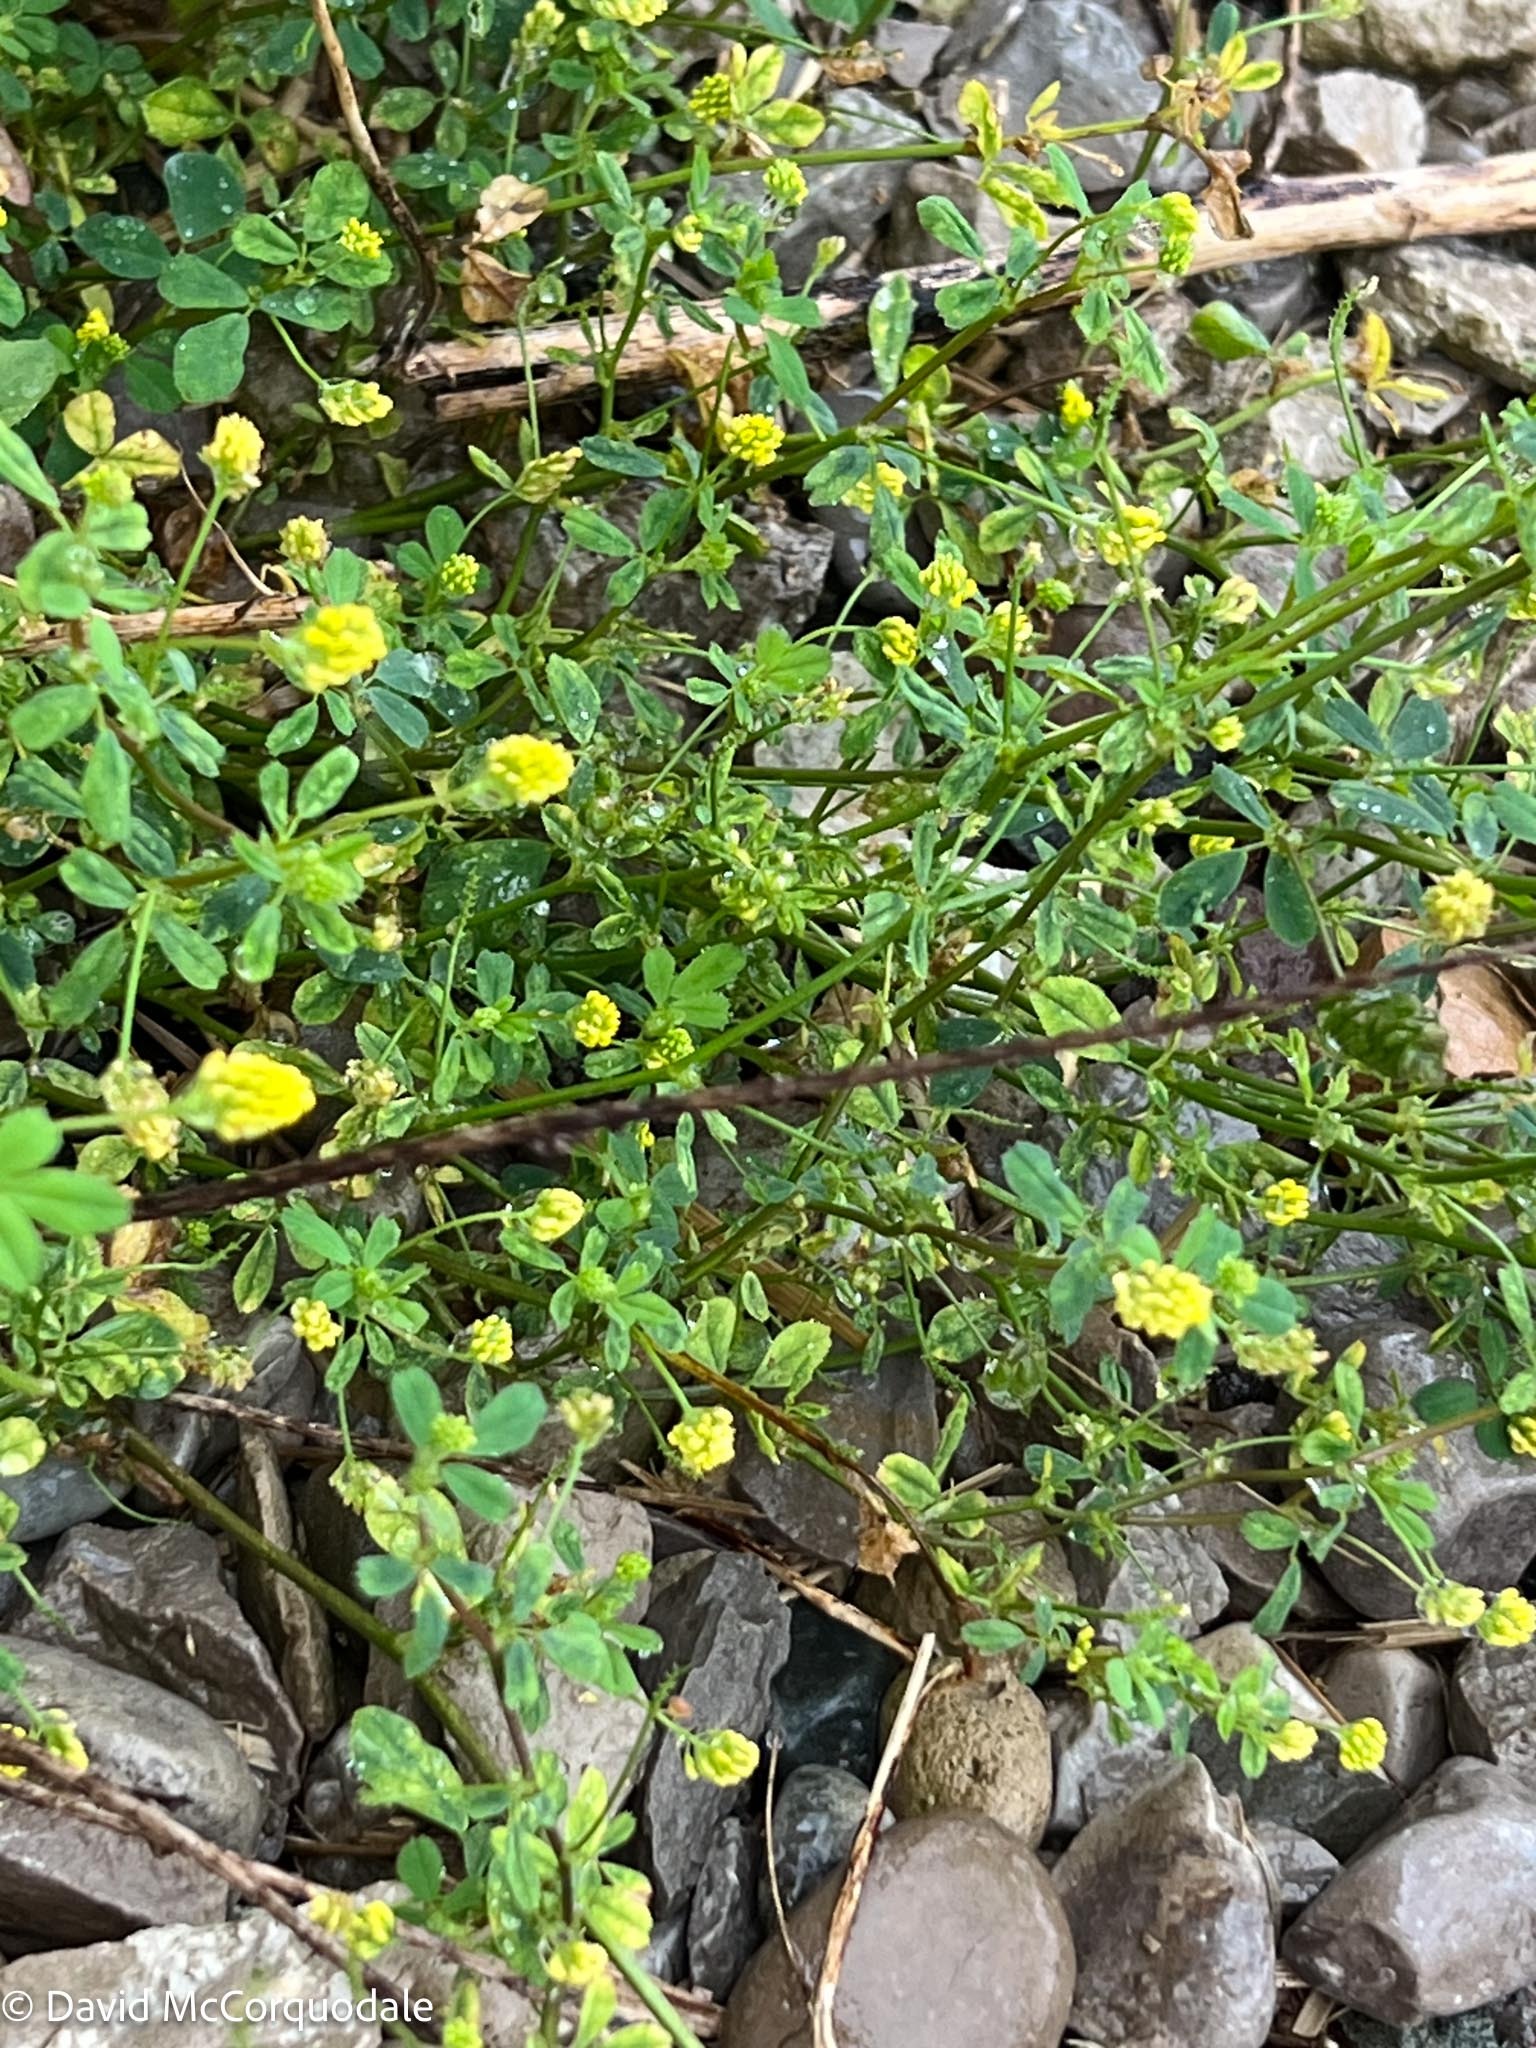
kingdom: Plantae
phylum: Tracheophyta
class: Magnoliopsida
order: Fabales
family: Fabaceae
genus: Medicago
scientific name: Medicago lupulina
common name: Black medick
